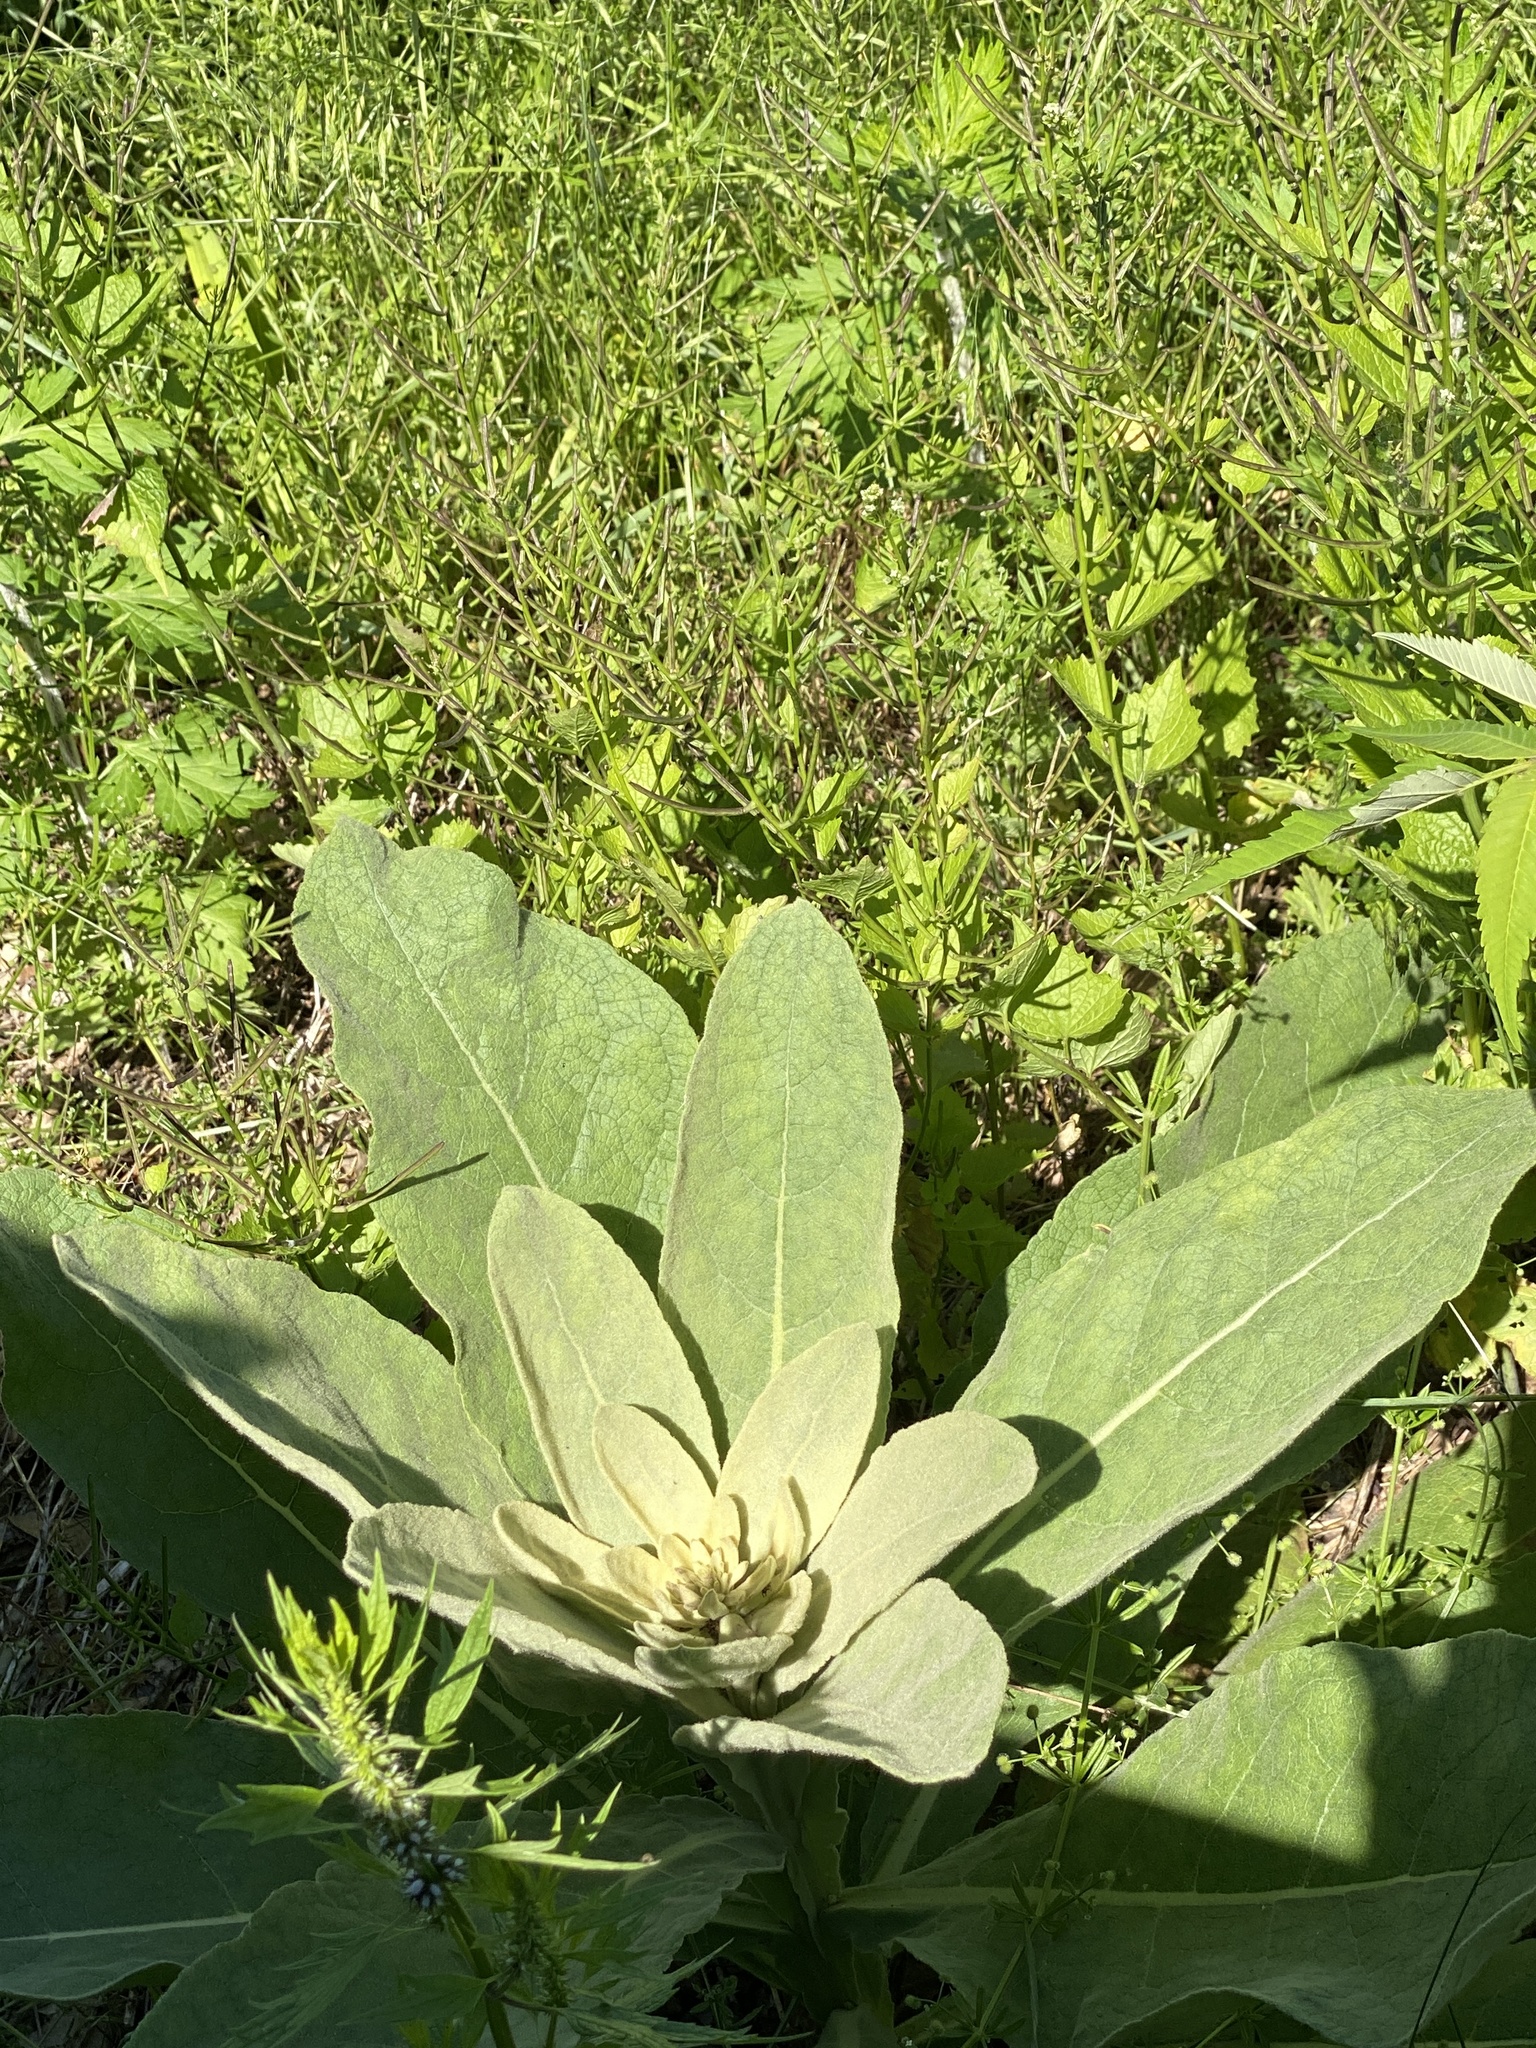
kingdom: Plantae
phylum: Tracheophyta
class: Magnoliopsida
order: Lamiales
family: Scrophulariaceae
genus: Verbascum
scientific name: Verbascum thapsus
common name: Common mullein
